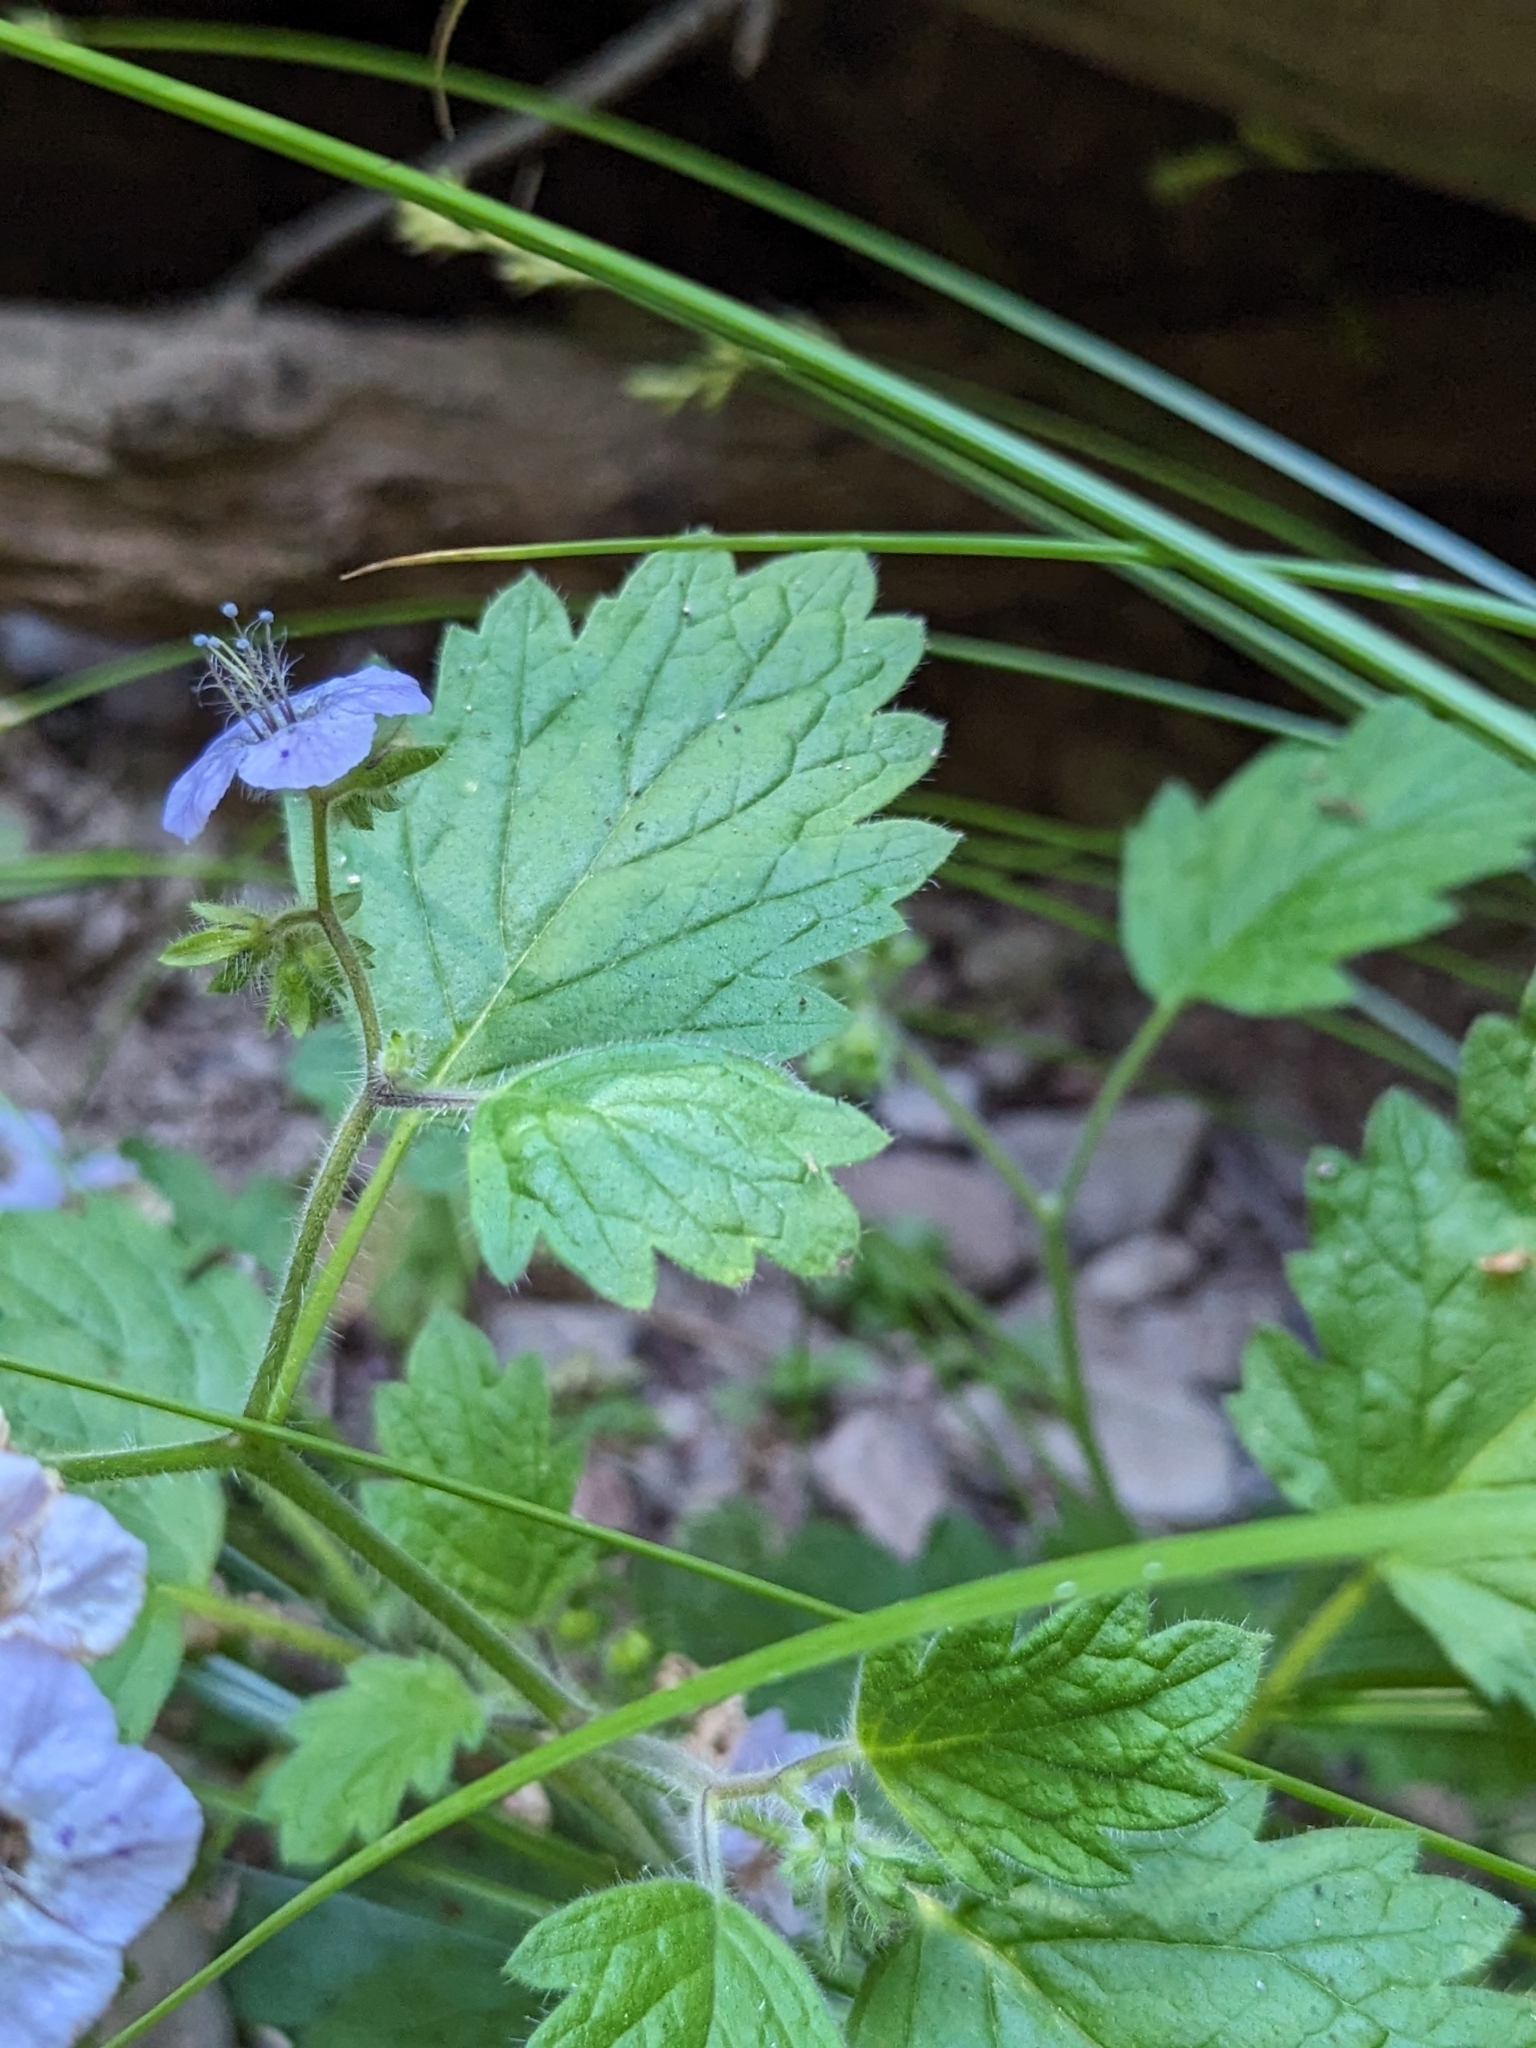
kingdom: Plantae
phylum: Tracheophyta
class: Magnoliopsida
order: Boraginales
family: Hydrophyllaceae
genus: Phacelia
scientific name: Phacelia bolanderi
